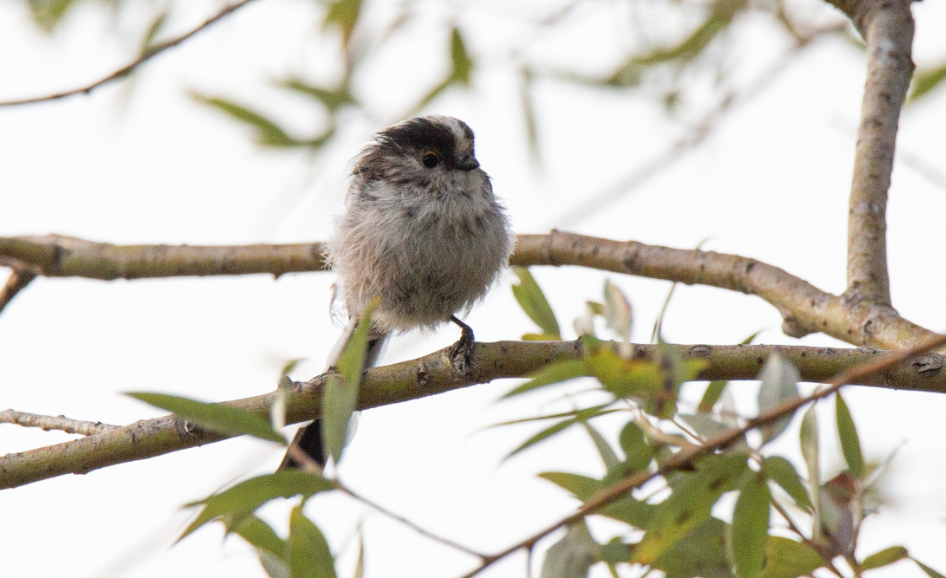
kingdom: Animalia
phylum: Chordata
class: Aves
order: Passeriformes
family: Aegithalidae
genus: Aegithalos
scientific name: Aegithalos caudatus
